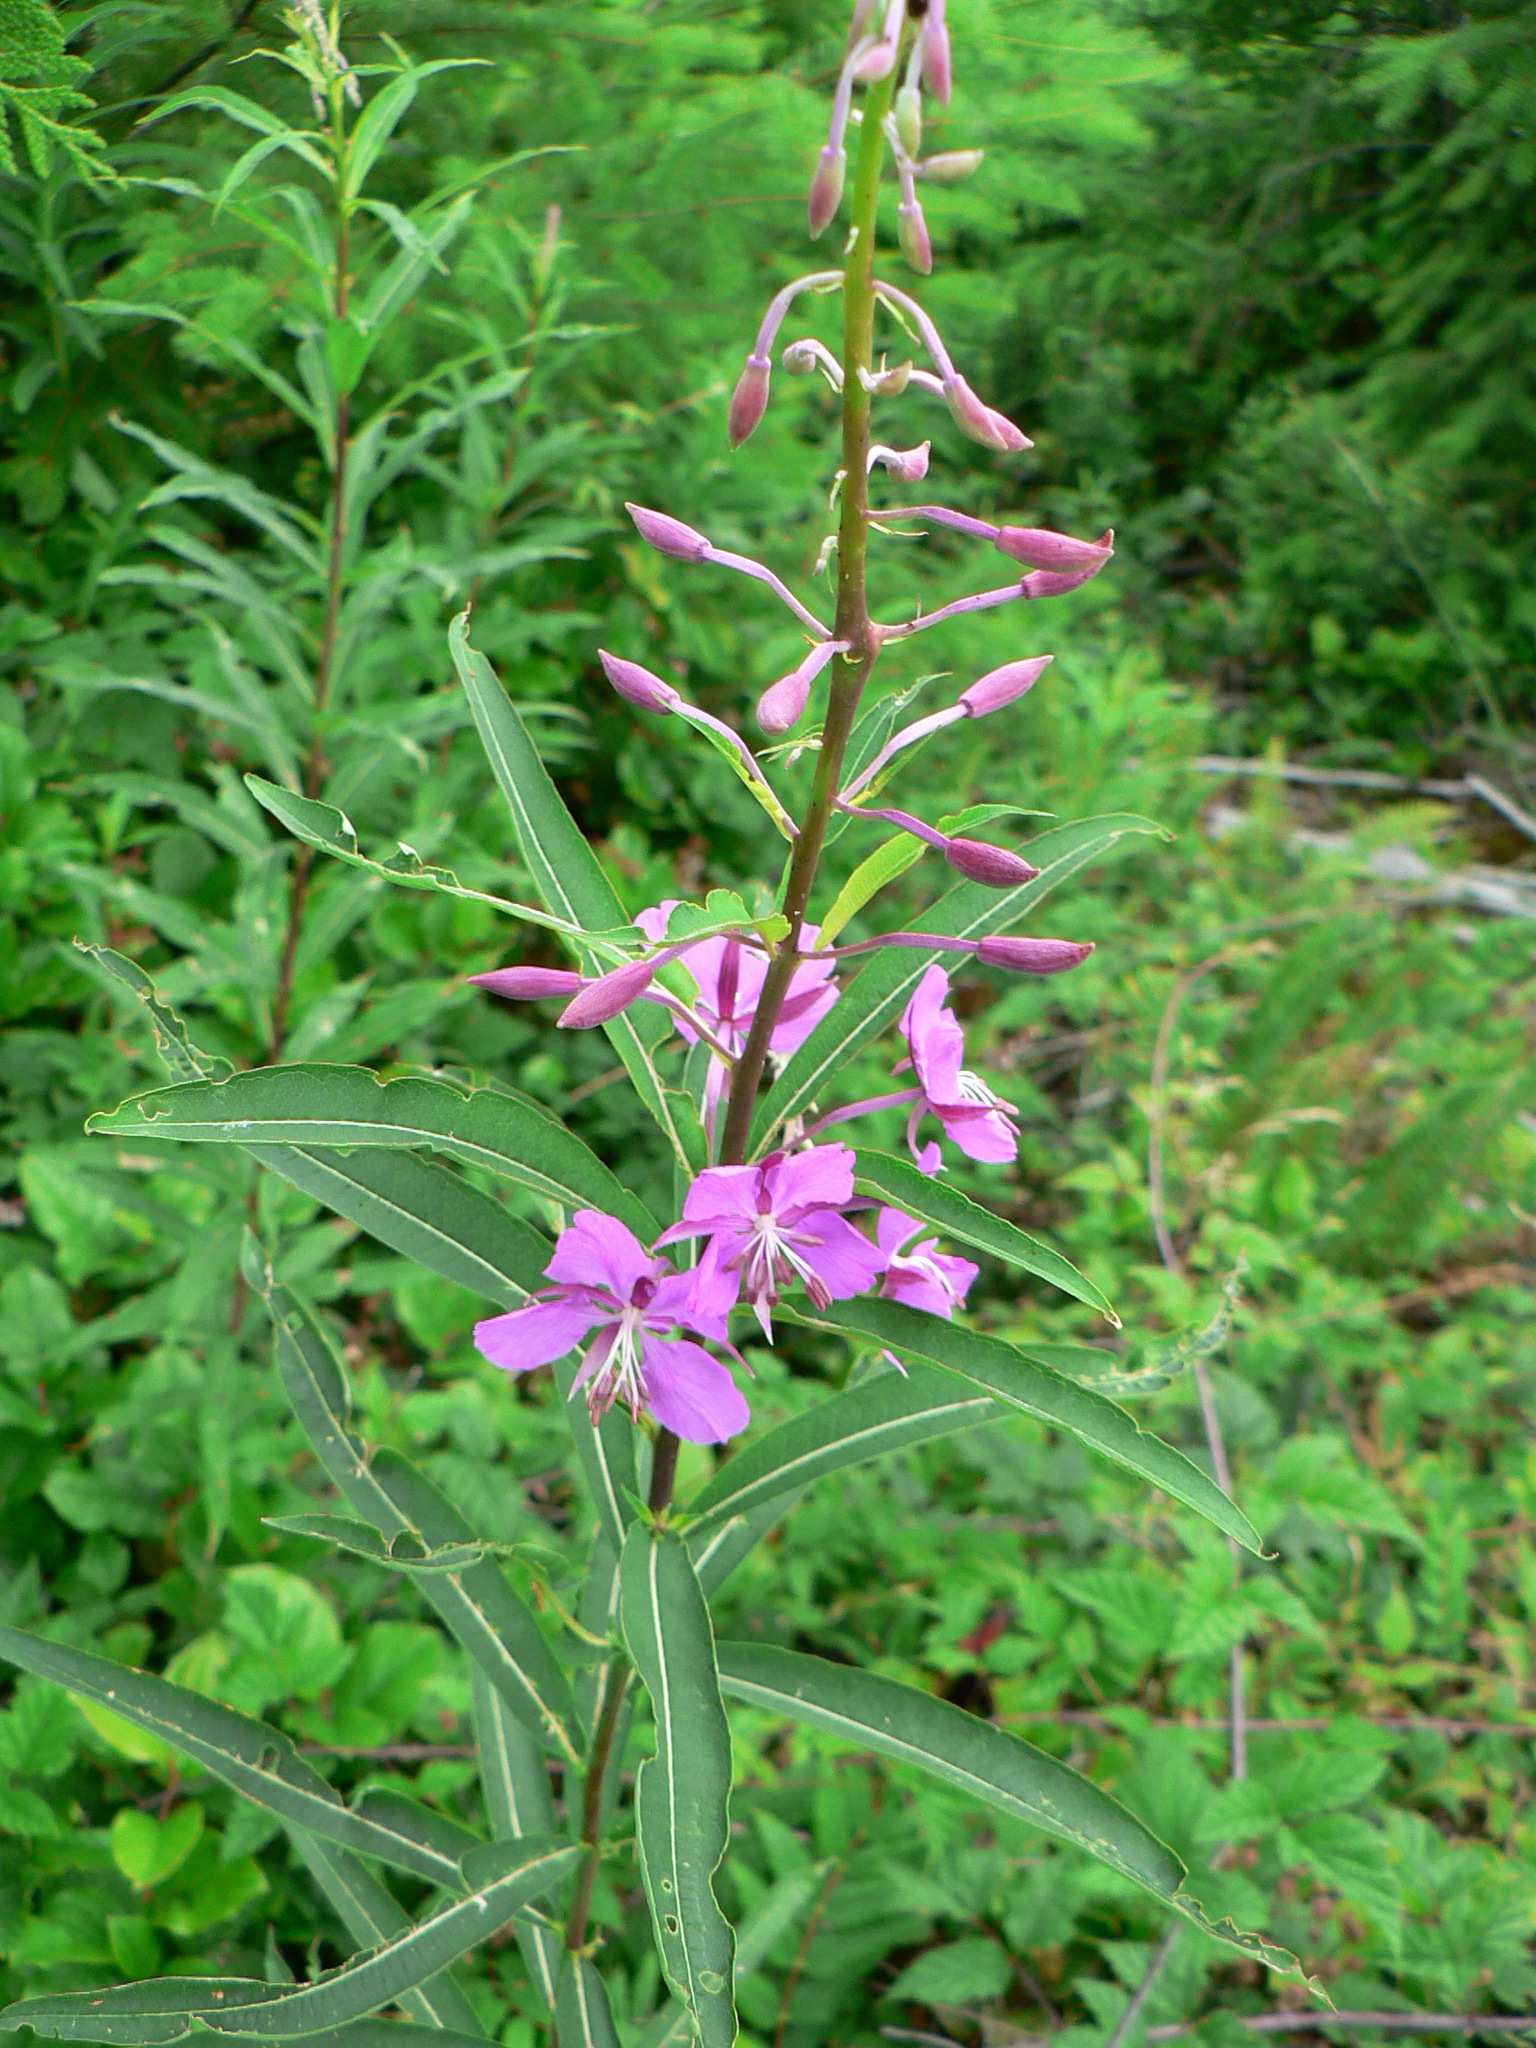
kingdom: Plantae
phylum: Tracheophyta
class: Magnoliopsida
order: Myrtales
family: Onagraceae
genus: Chamaenerion
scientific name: Chamaenerion angustifolium
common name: Fireweed
